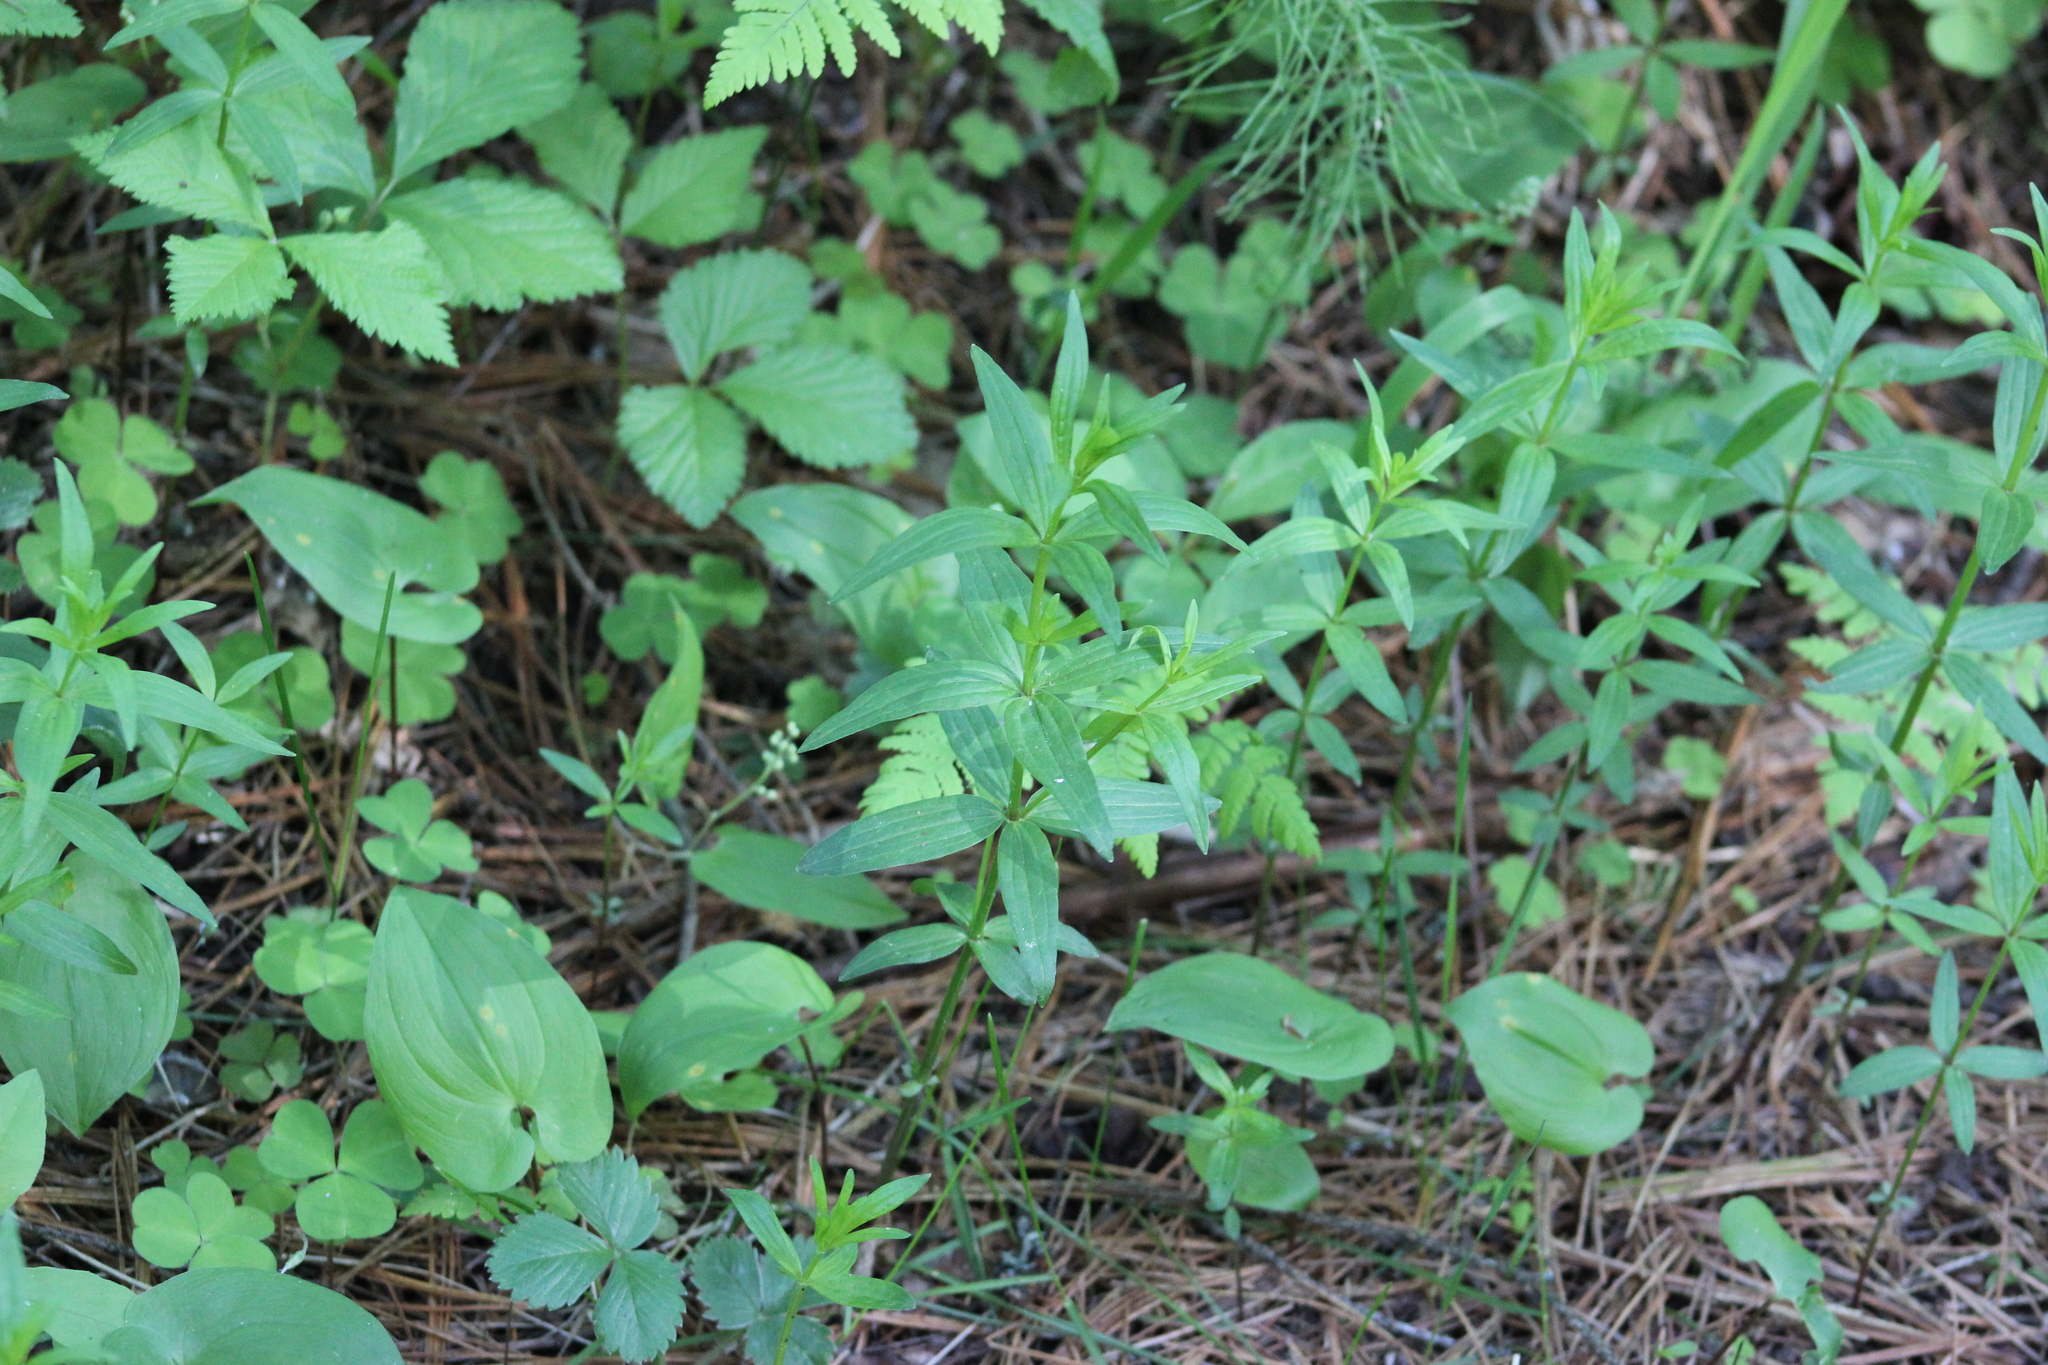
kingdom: Plantae
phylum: Tracheophyta
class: Magnoliopsida
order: Gentianales
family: Rubiaceae
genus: Galium
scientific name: Galium boreale
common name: Northern bedstraw
